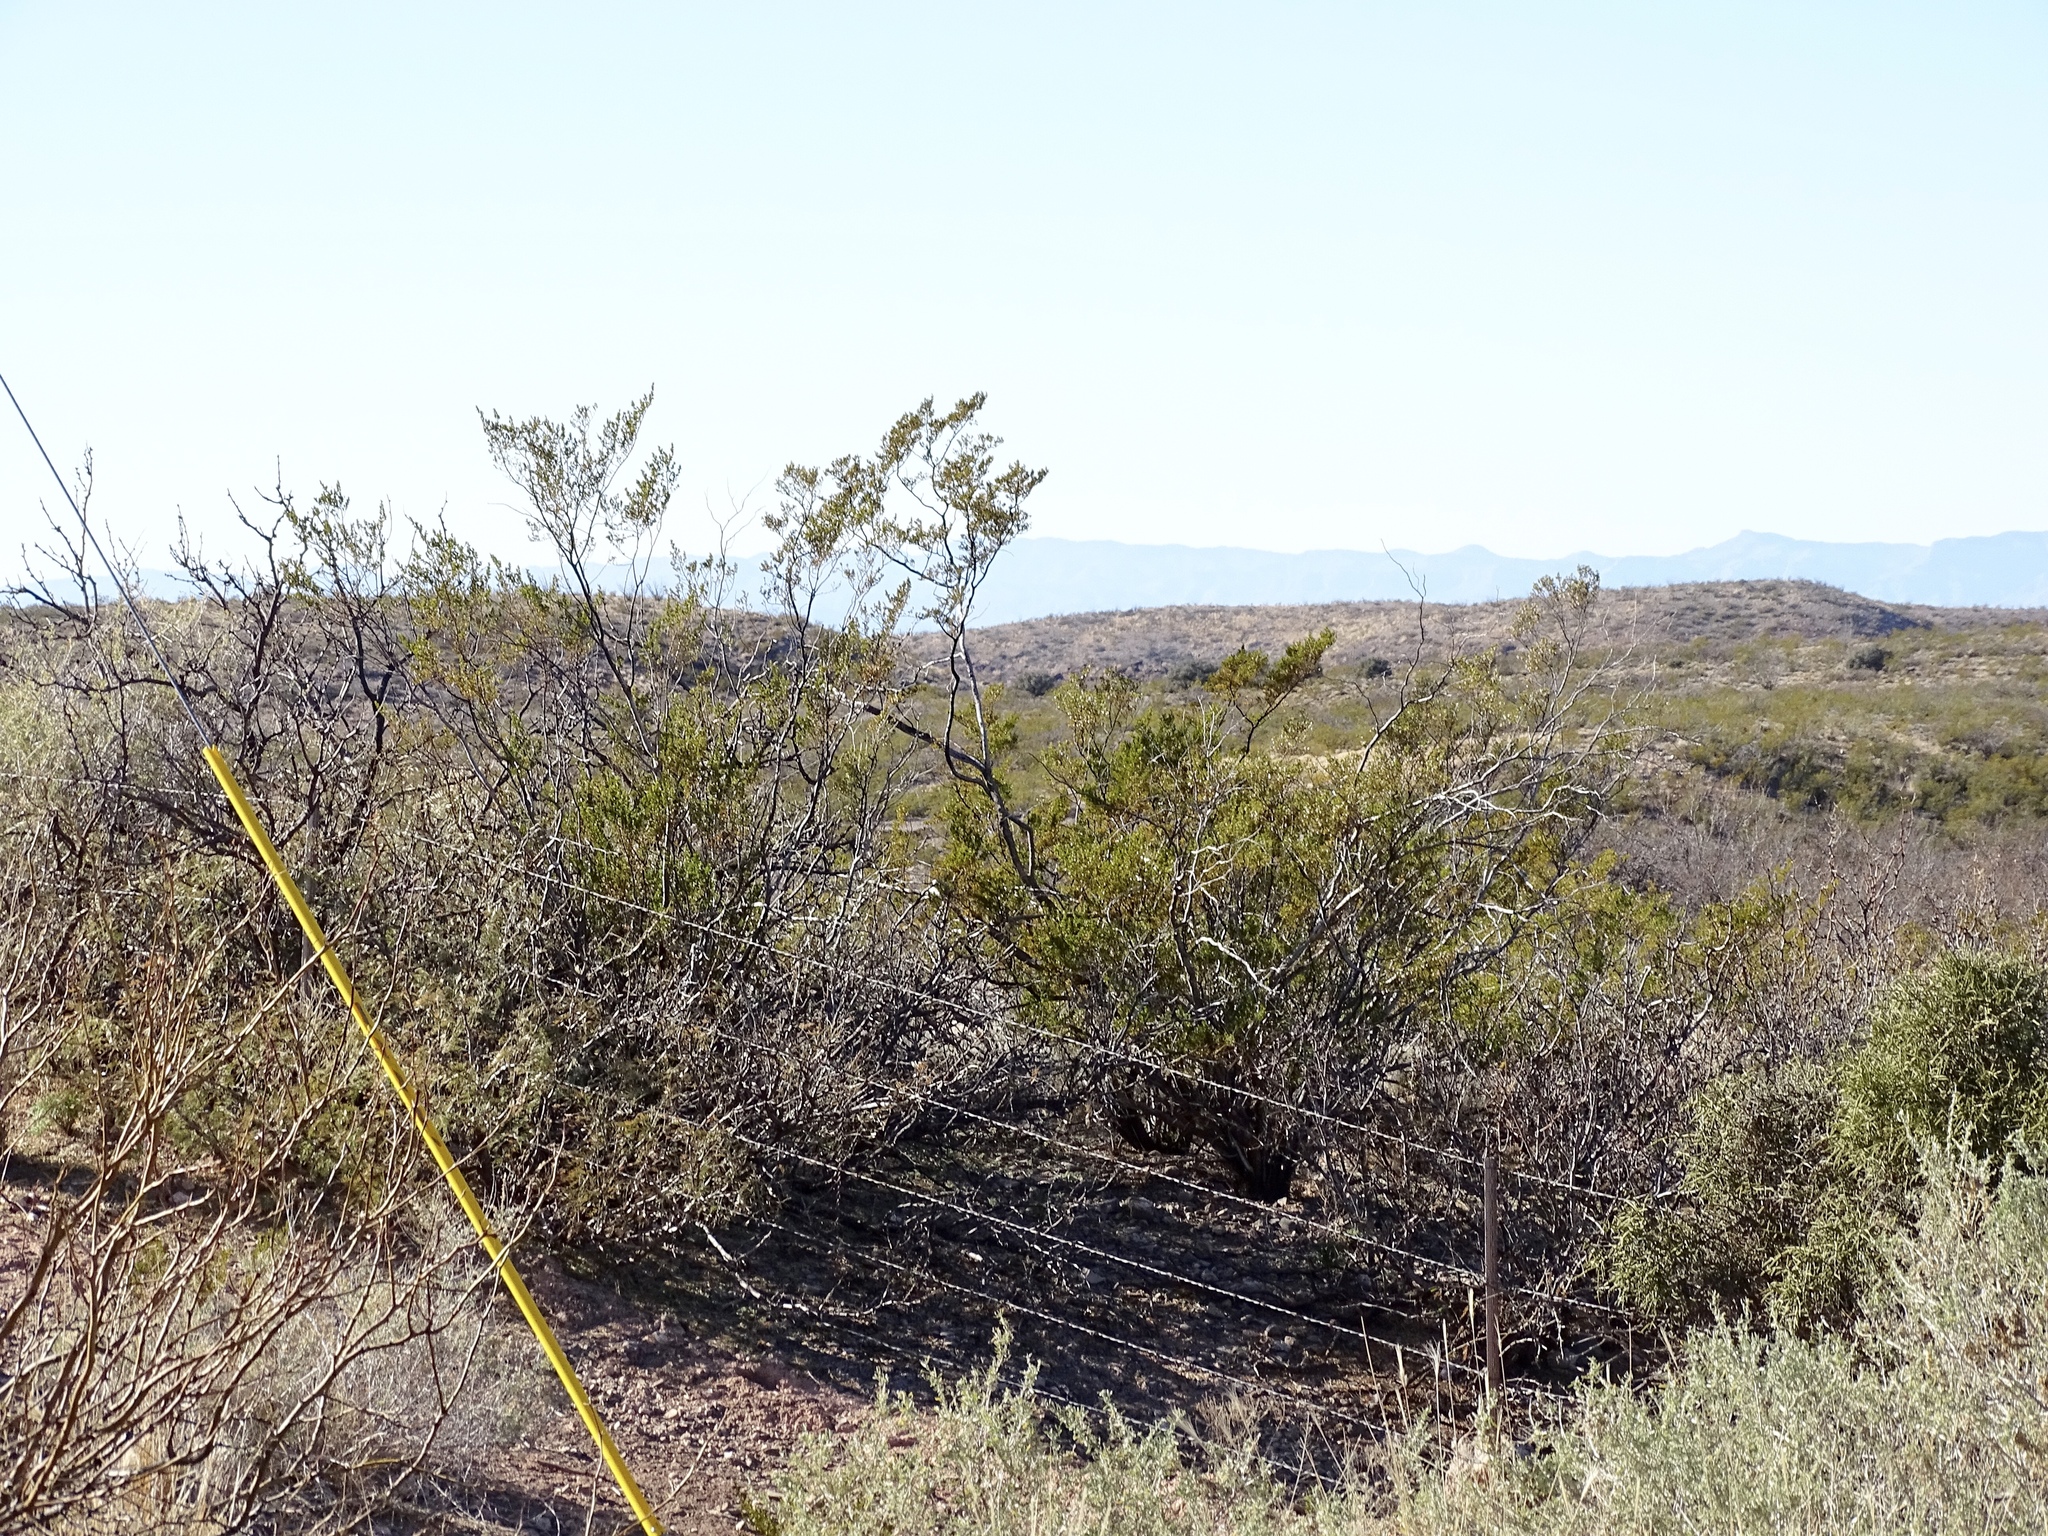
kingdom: Plantae
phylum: Tracheophyta
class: Magnoliopsida
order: Zygophyllales
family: Zygophyllaceae
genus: Larrea
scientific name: Larrea tridentata
